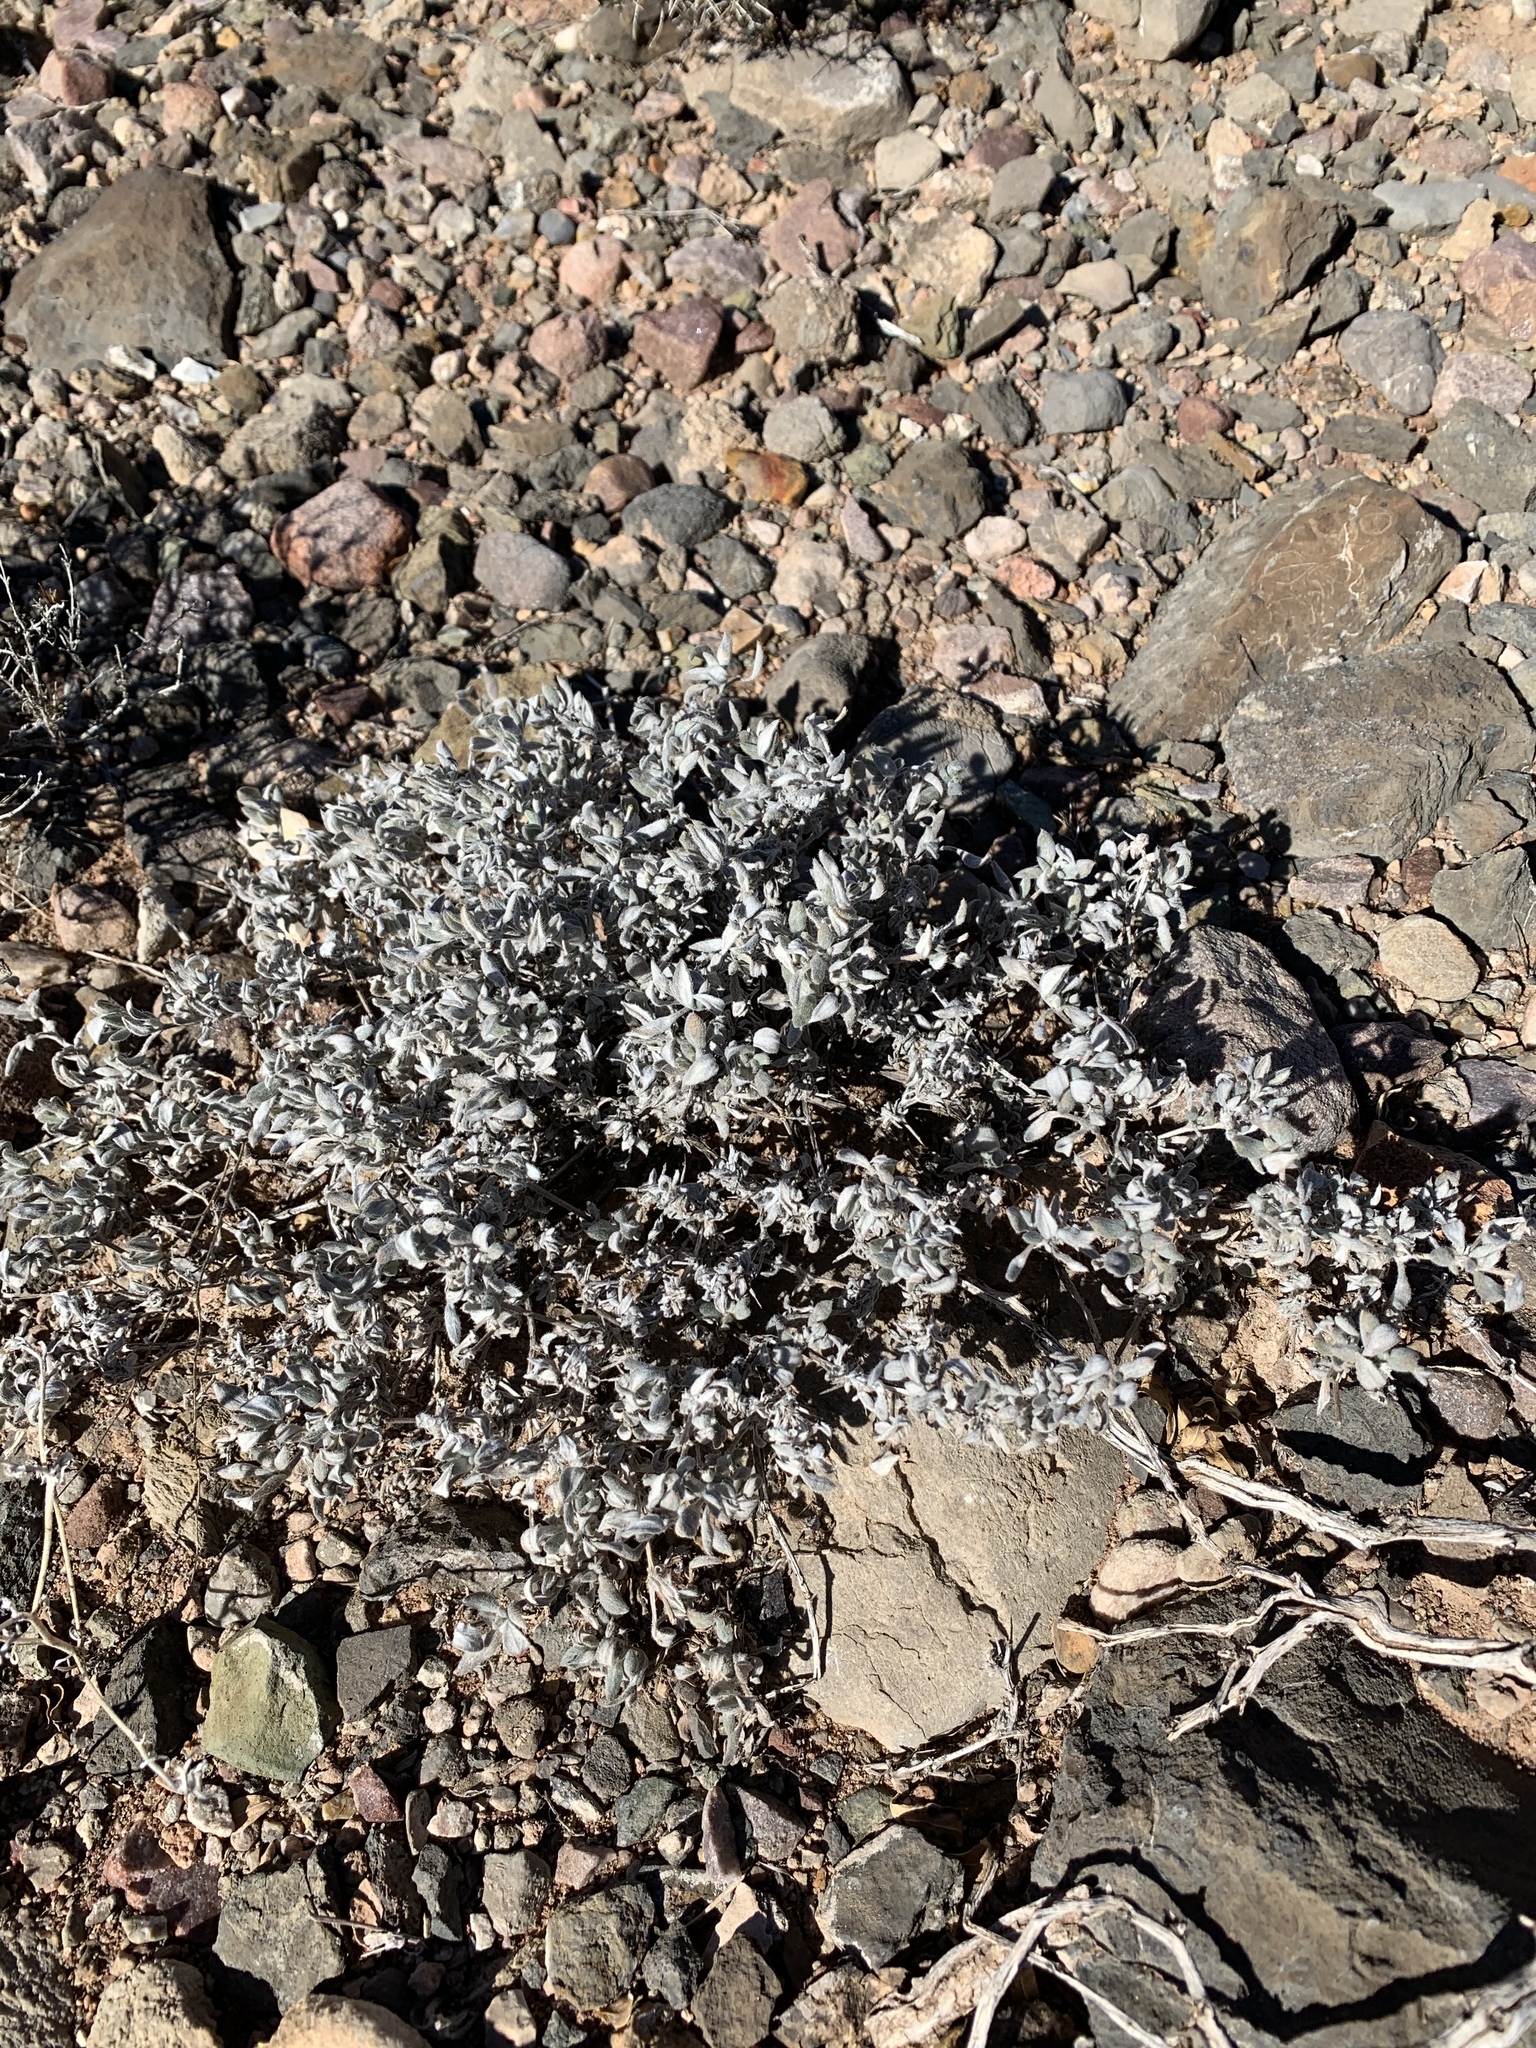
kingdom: Plantae
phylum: Tracheophyta
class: Magnoliopsida
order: Boraginales
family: Ehretiaceae
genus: Tiquilia
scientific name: Tiquilia canescens
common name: Hairy tiquilia
